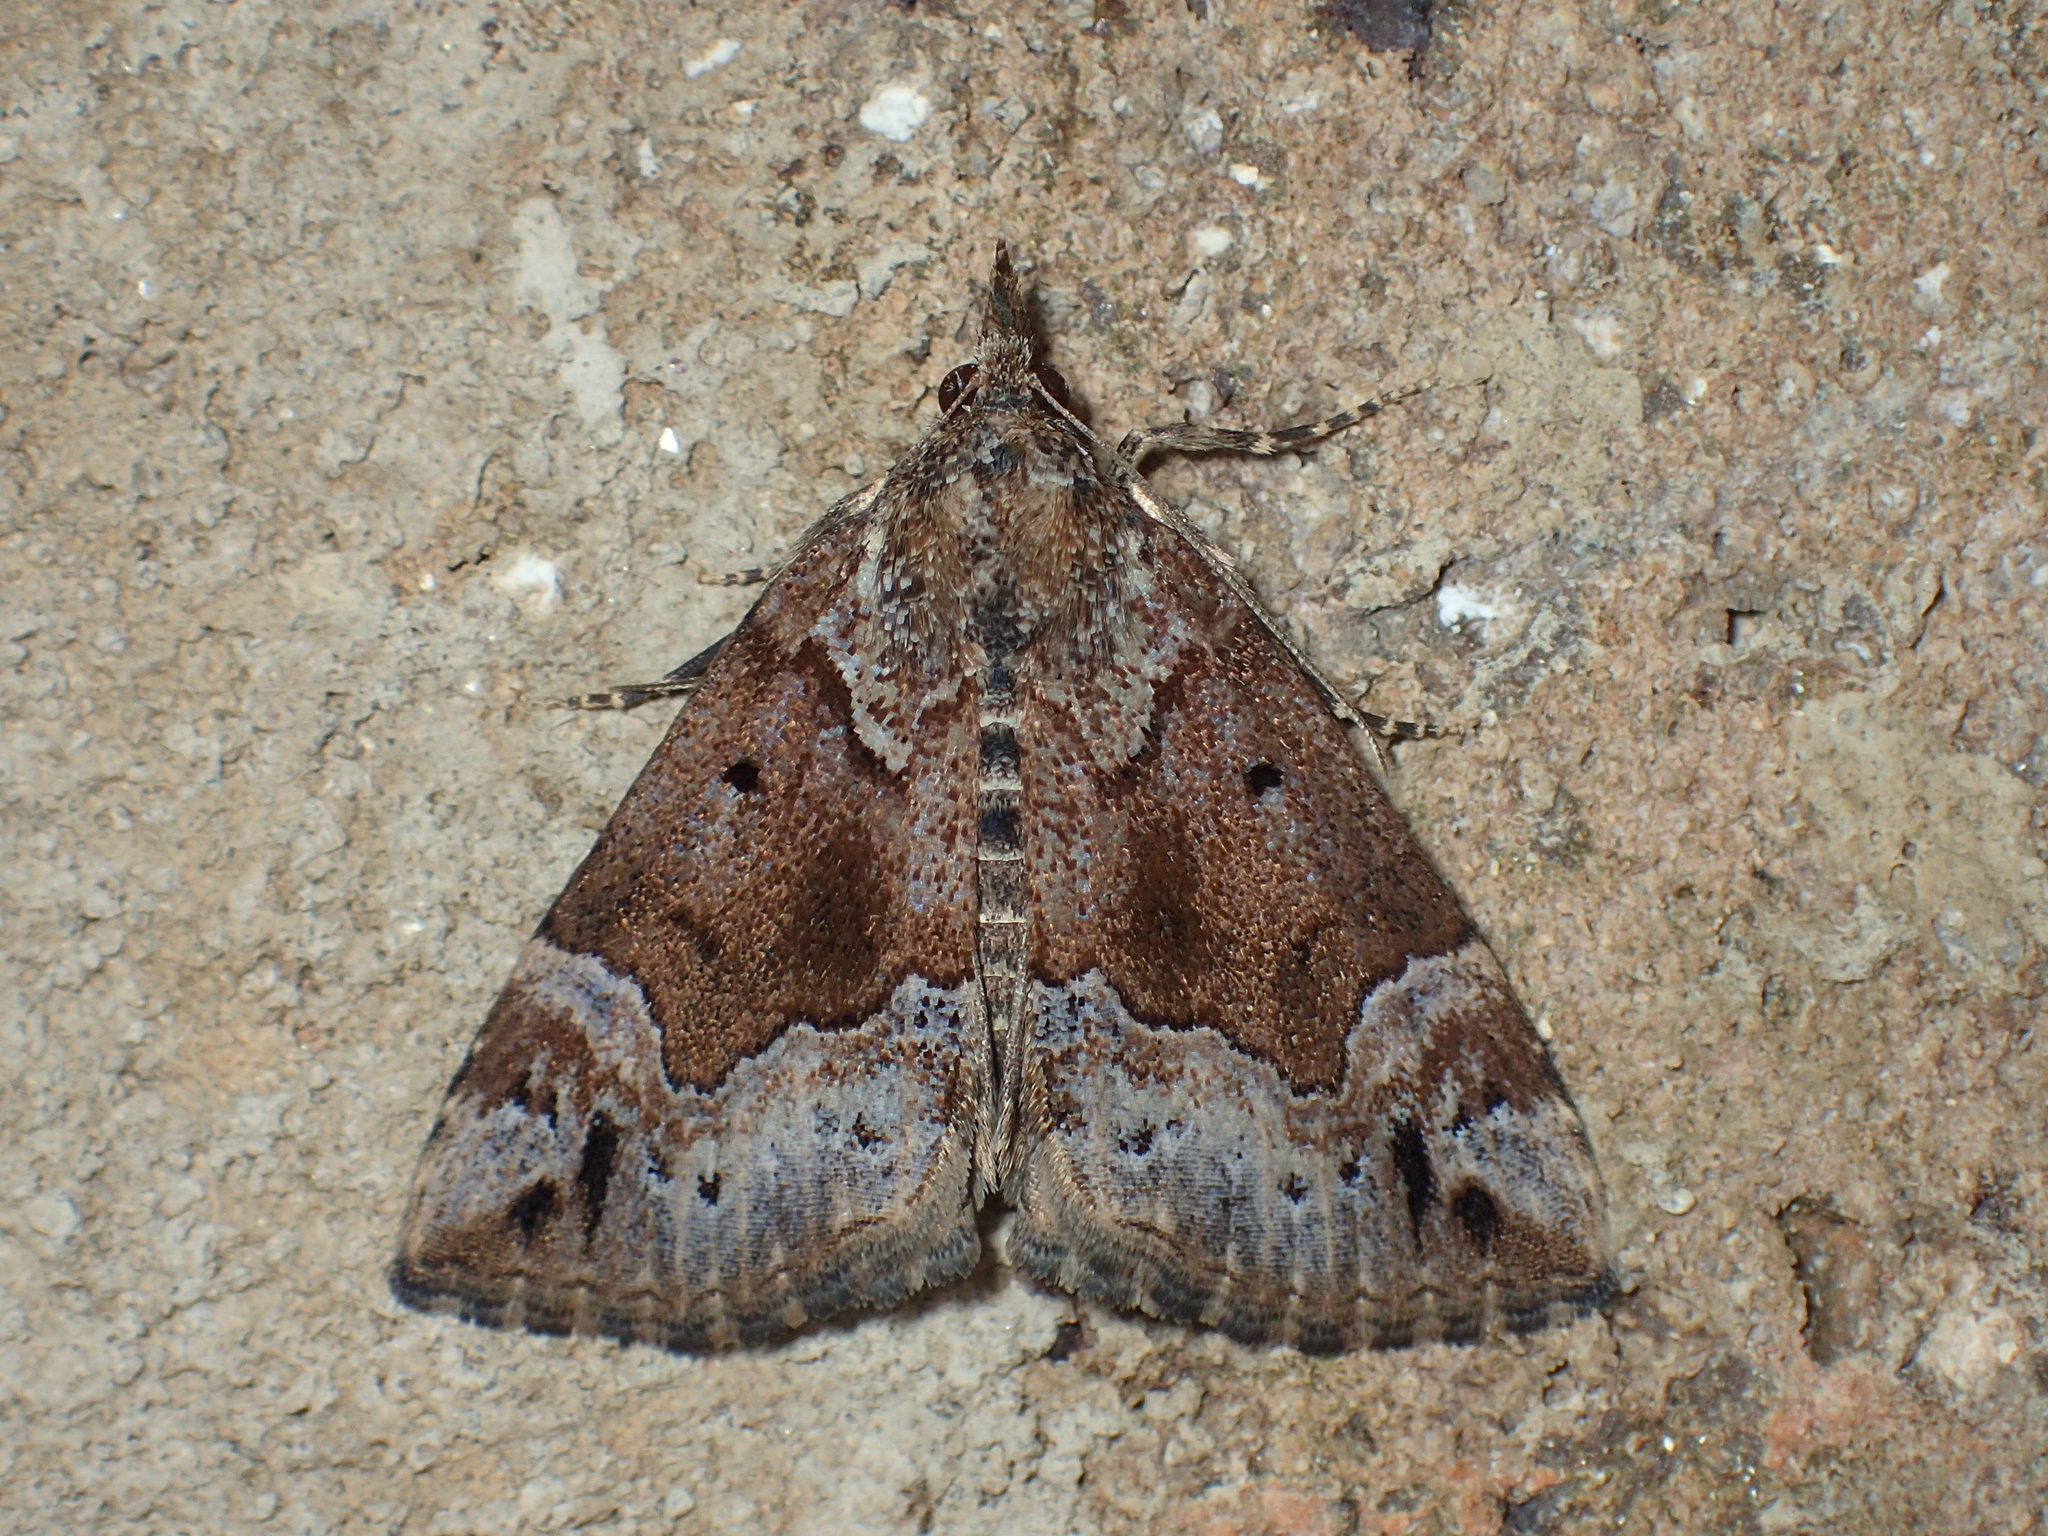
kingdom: Animalia
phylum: Arthropoda
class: Insecta
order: Lepidoptera
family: Erebidae
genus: Hypena
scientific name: Hypena palparia
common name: Mottled bomolocha moth
